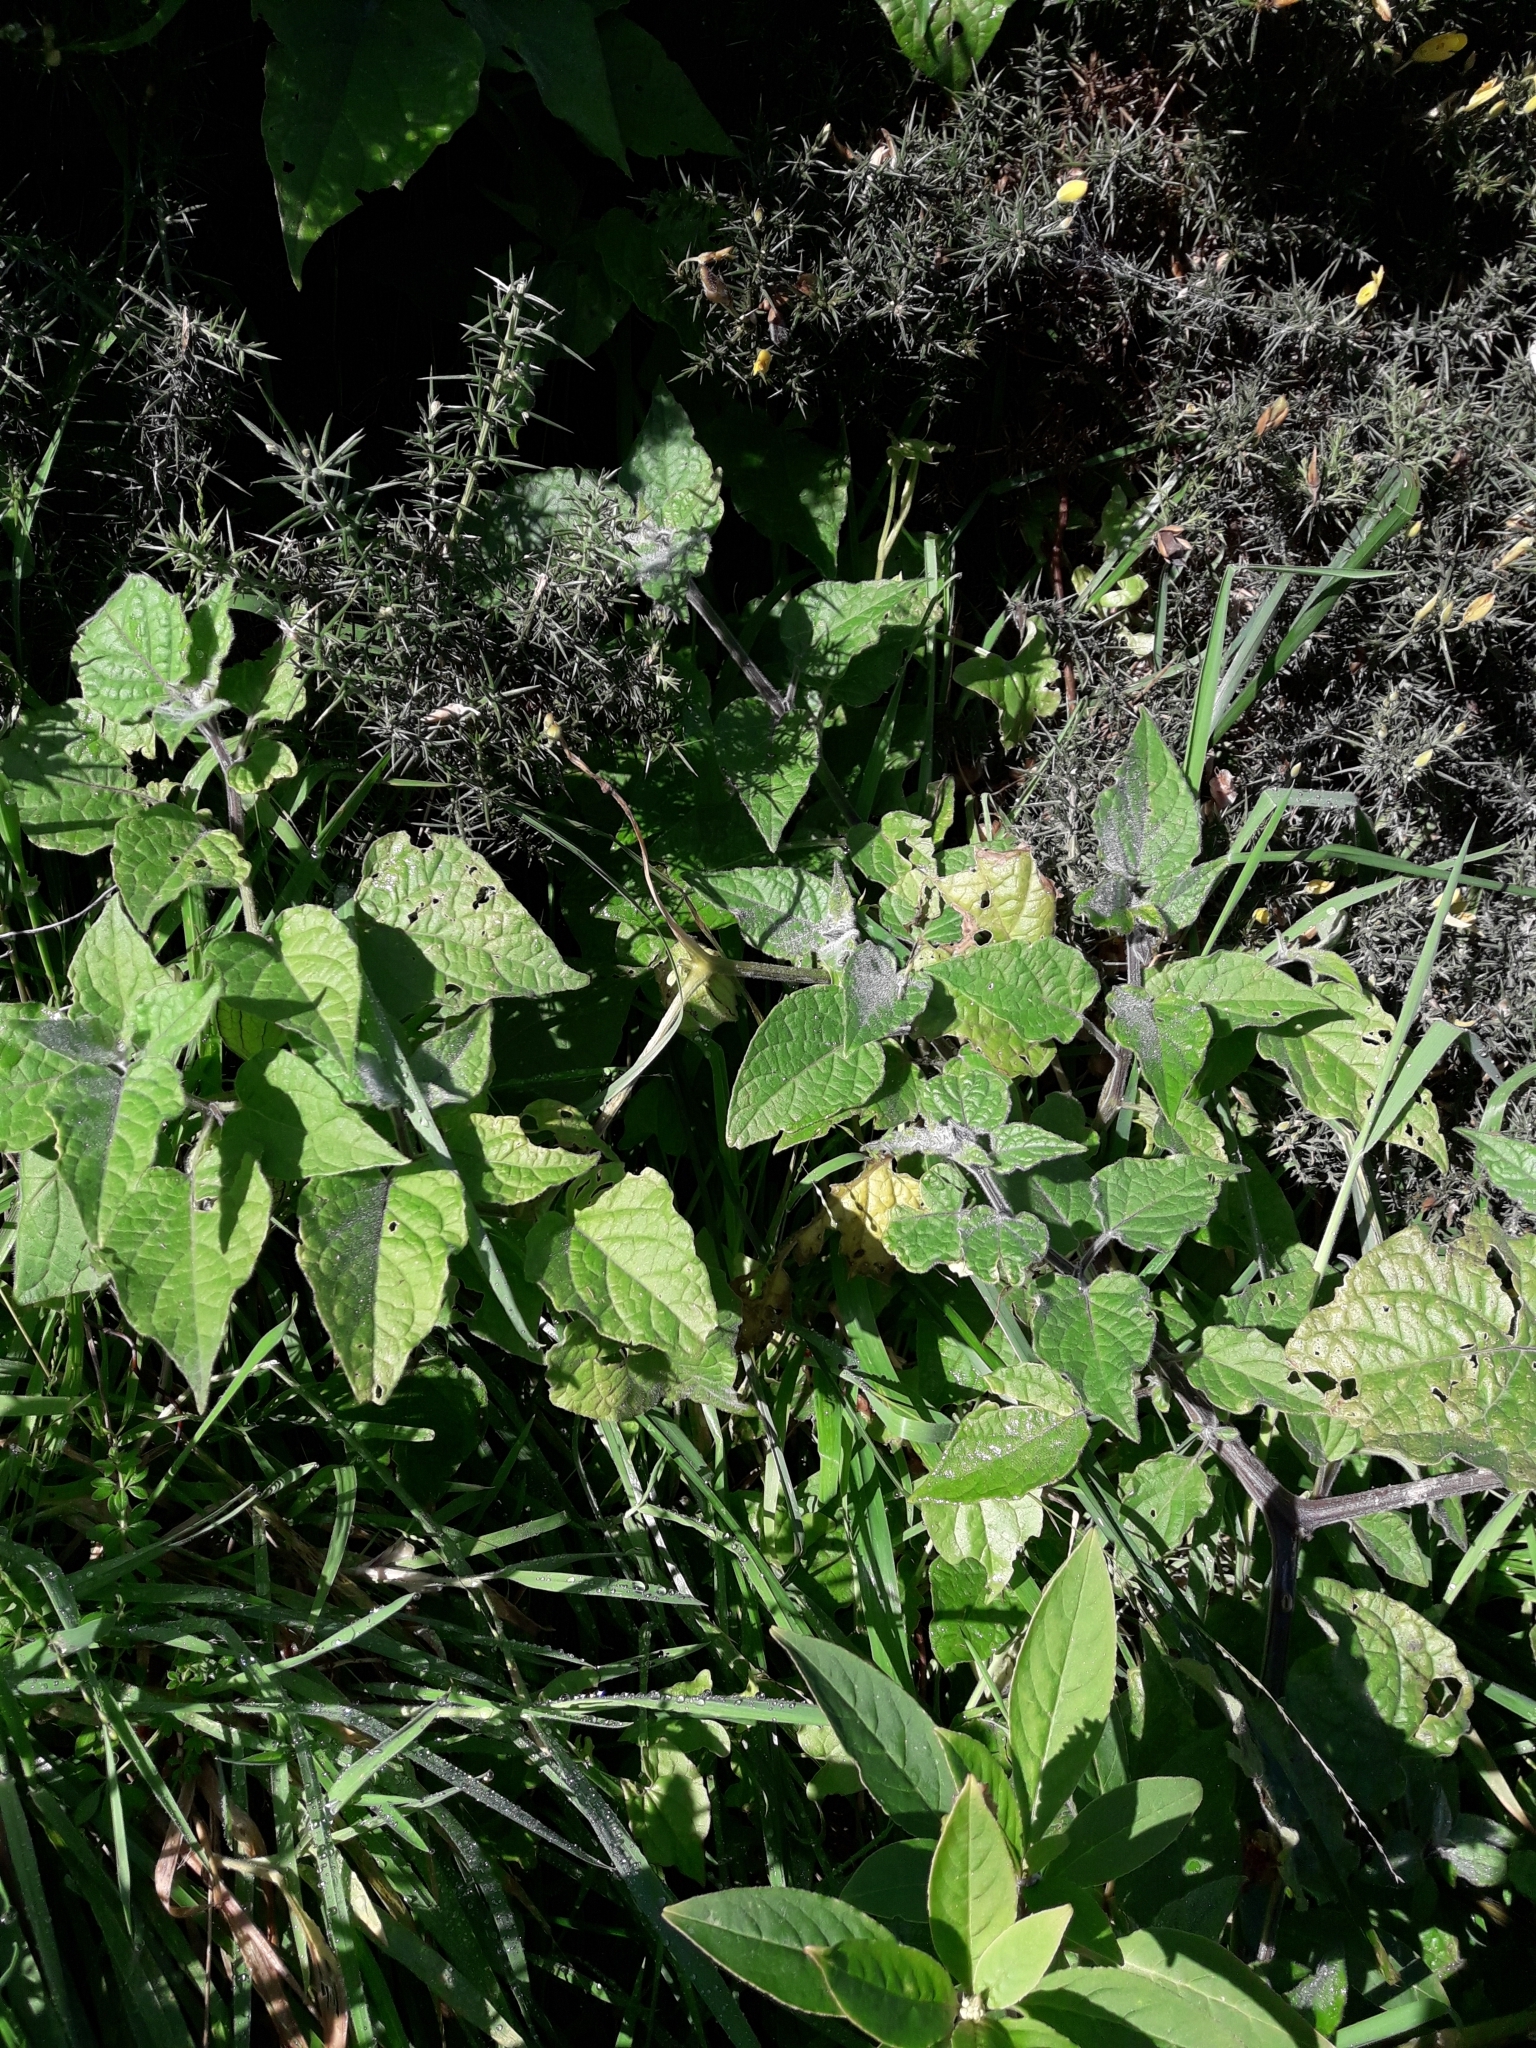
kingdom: Plantae
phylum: Tracheophyta
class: Magnoliopsida
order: Solanales
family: Solanaceae
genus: Physalis
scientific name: Physalis peruviana
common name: Cape-gooseberry
